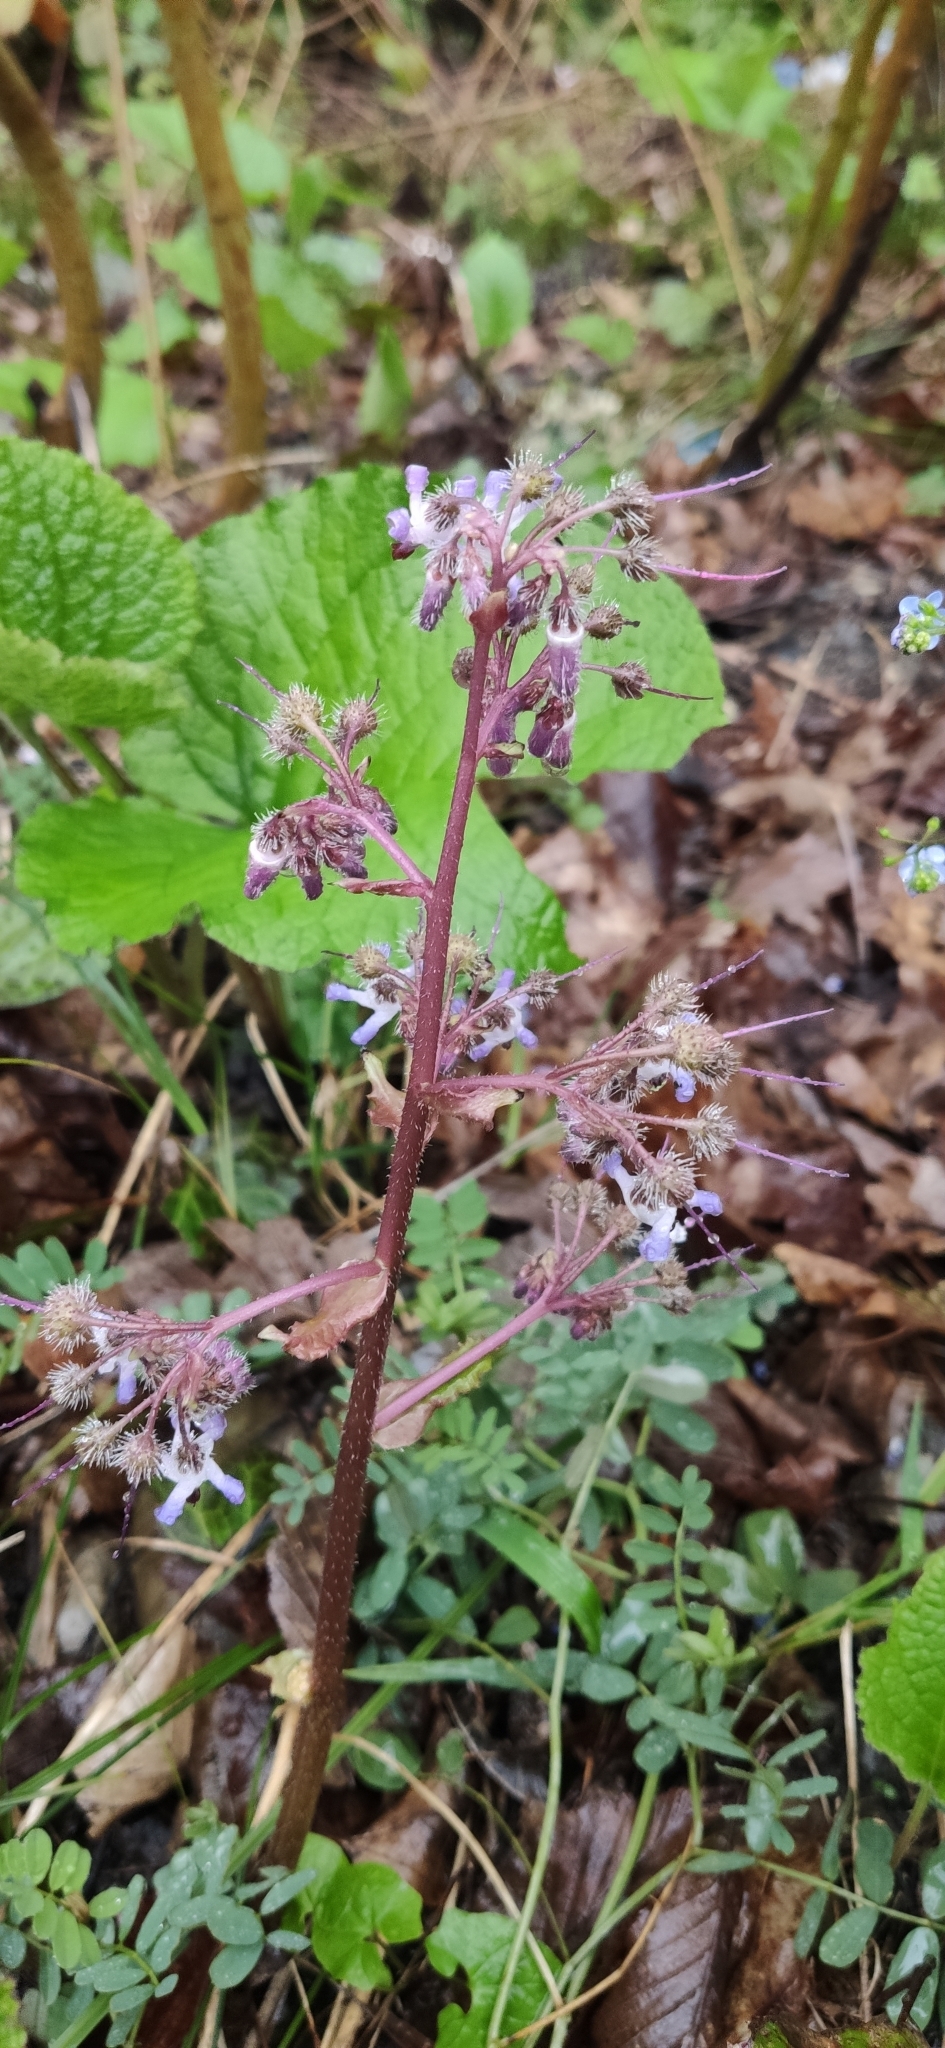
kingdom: Plantae
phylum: Tracheophyta
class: Magnoliopsida
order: Boraginales
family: Boraginaceae
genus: Trachystemon
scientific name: Trachystemon orientale
